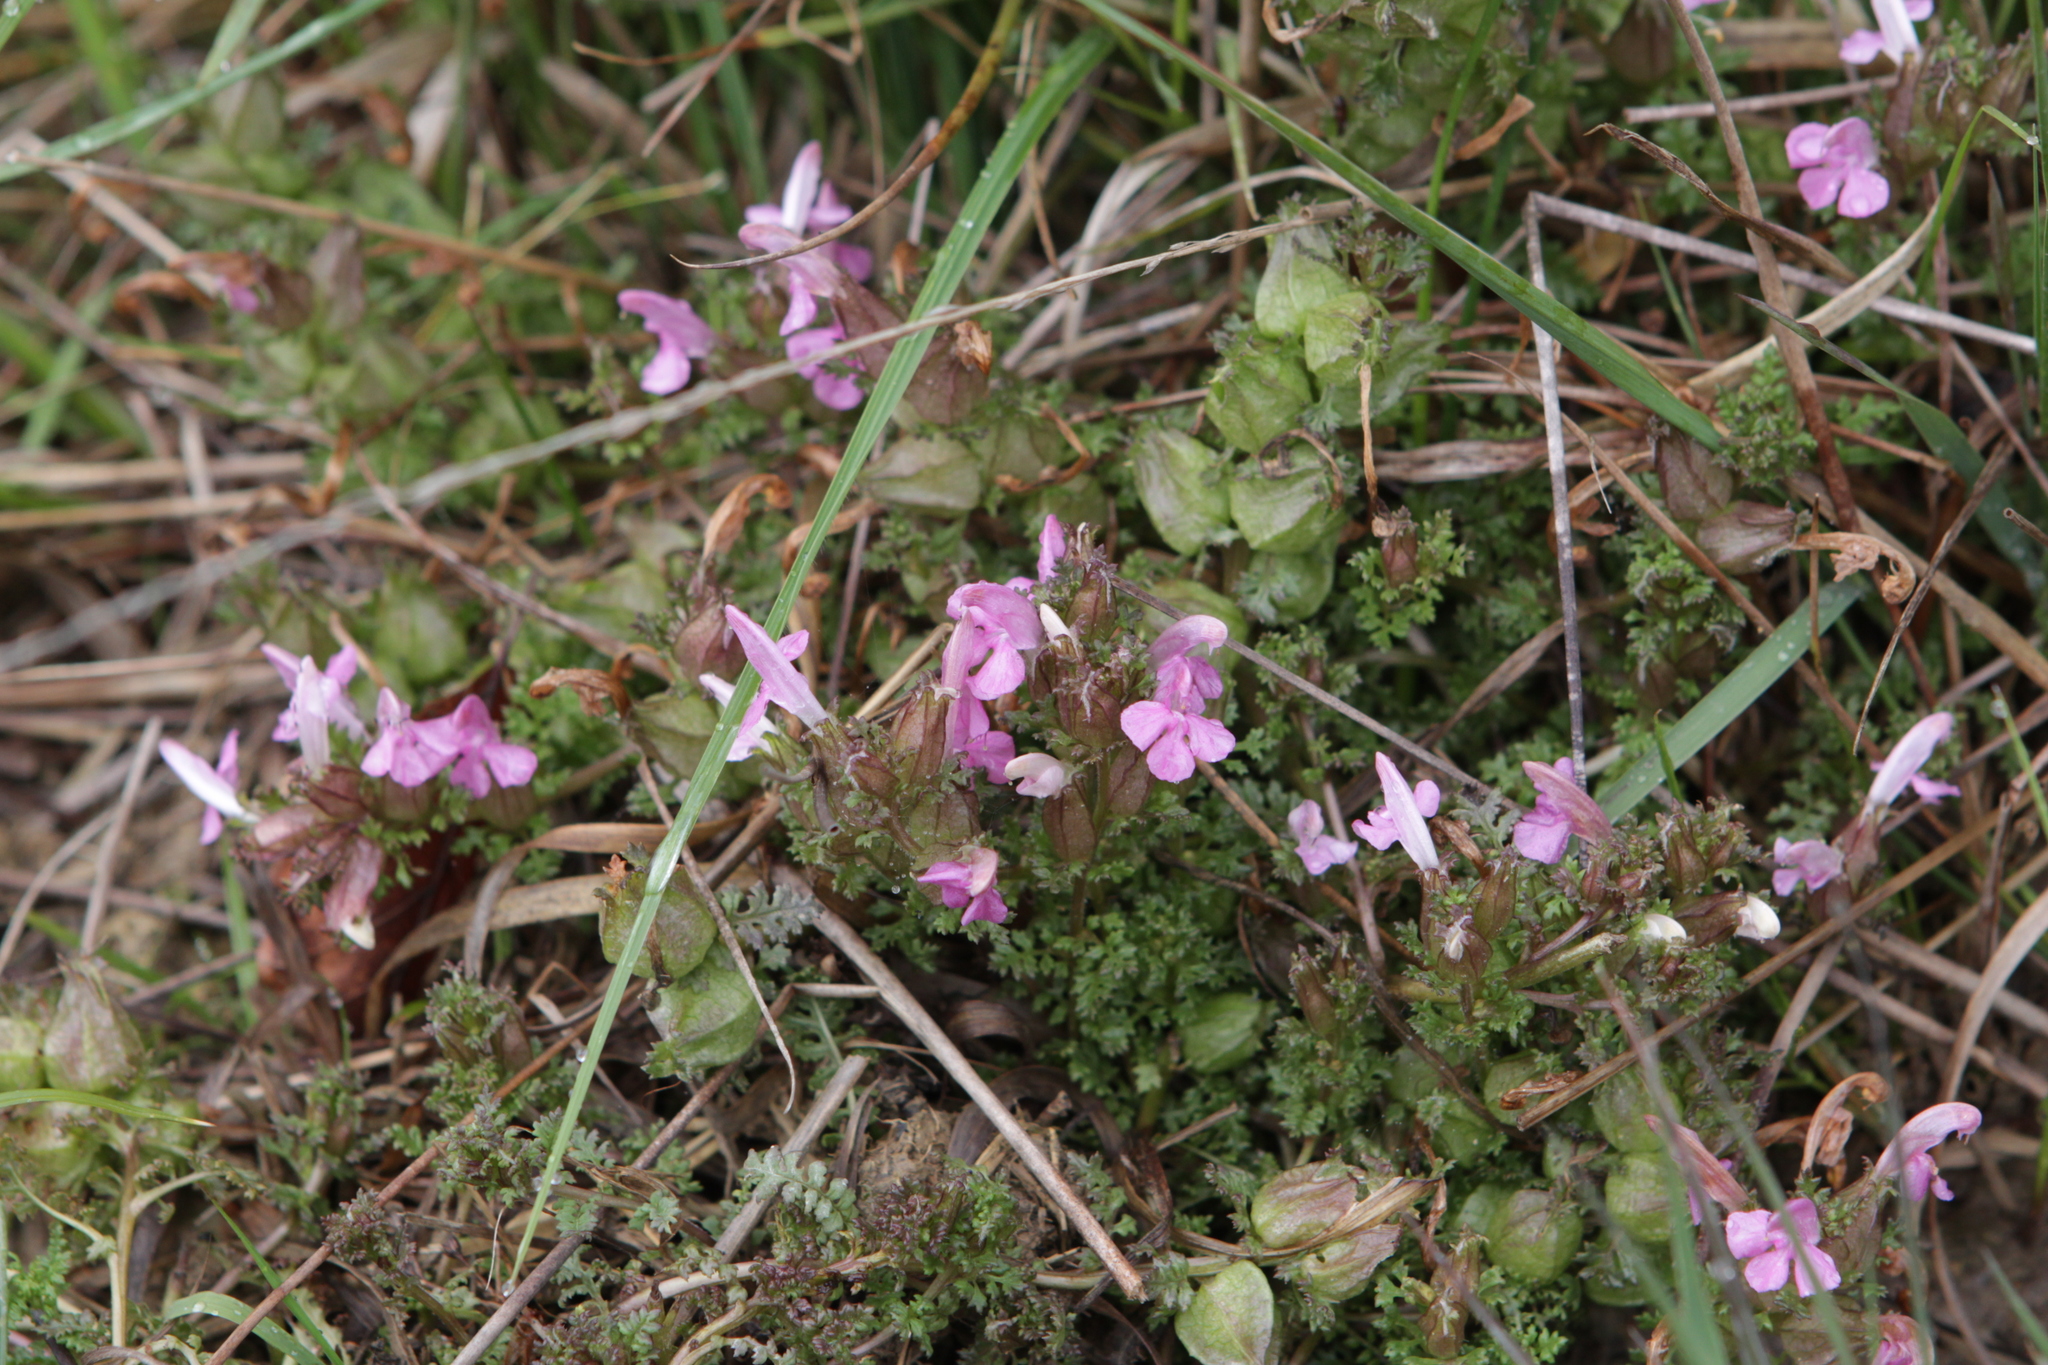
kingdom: Plantae
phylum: Tracheophyta
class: Magnoliopsida
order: Lamiales
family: Orobanchaceae
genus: Pedicularis
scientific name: Pedicularis sylvatica
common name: Lousewort
